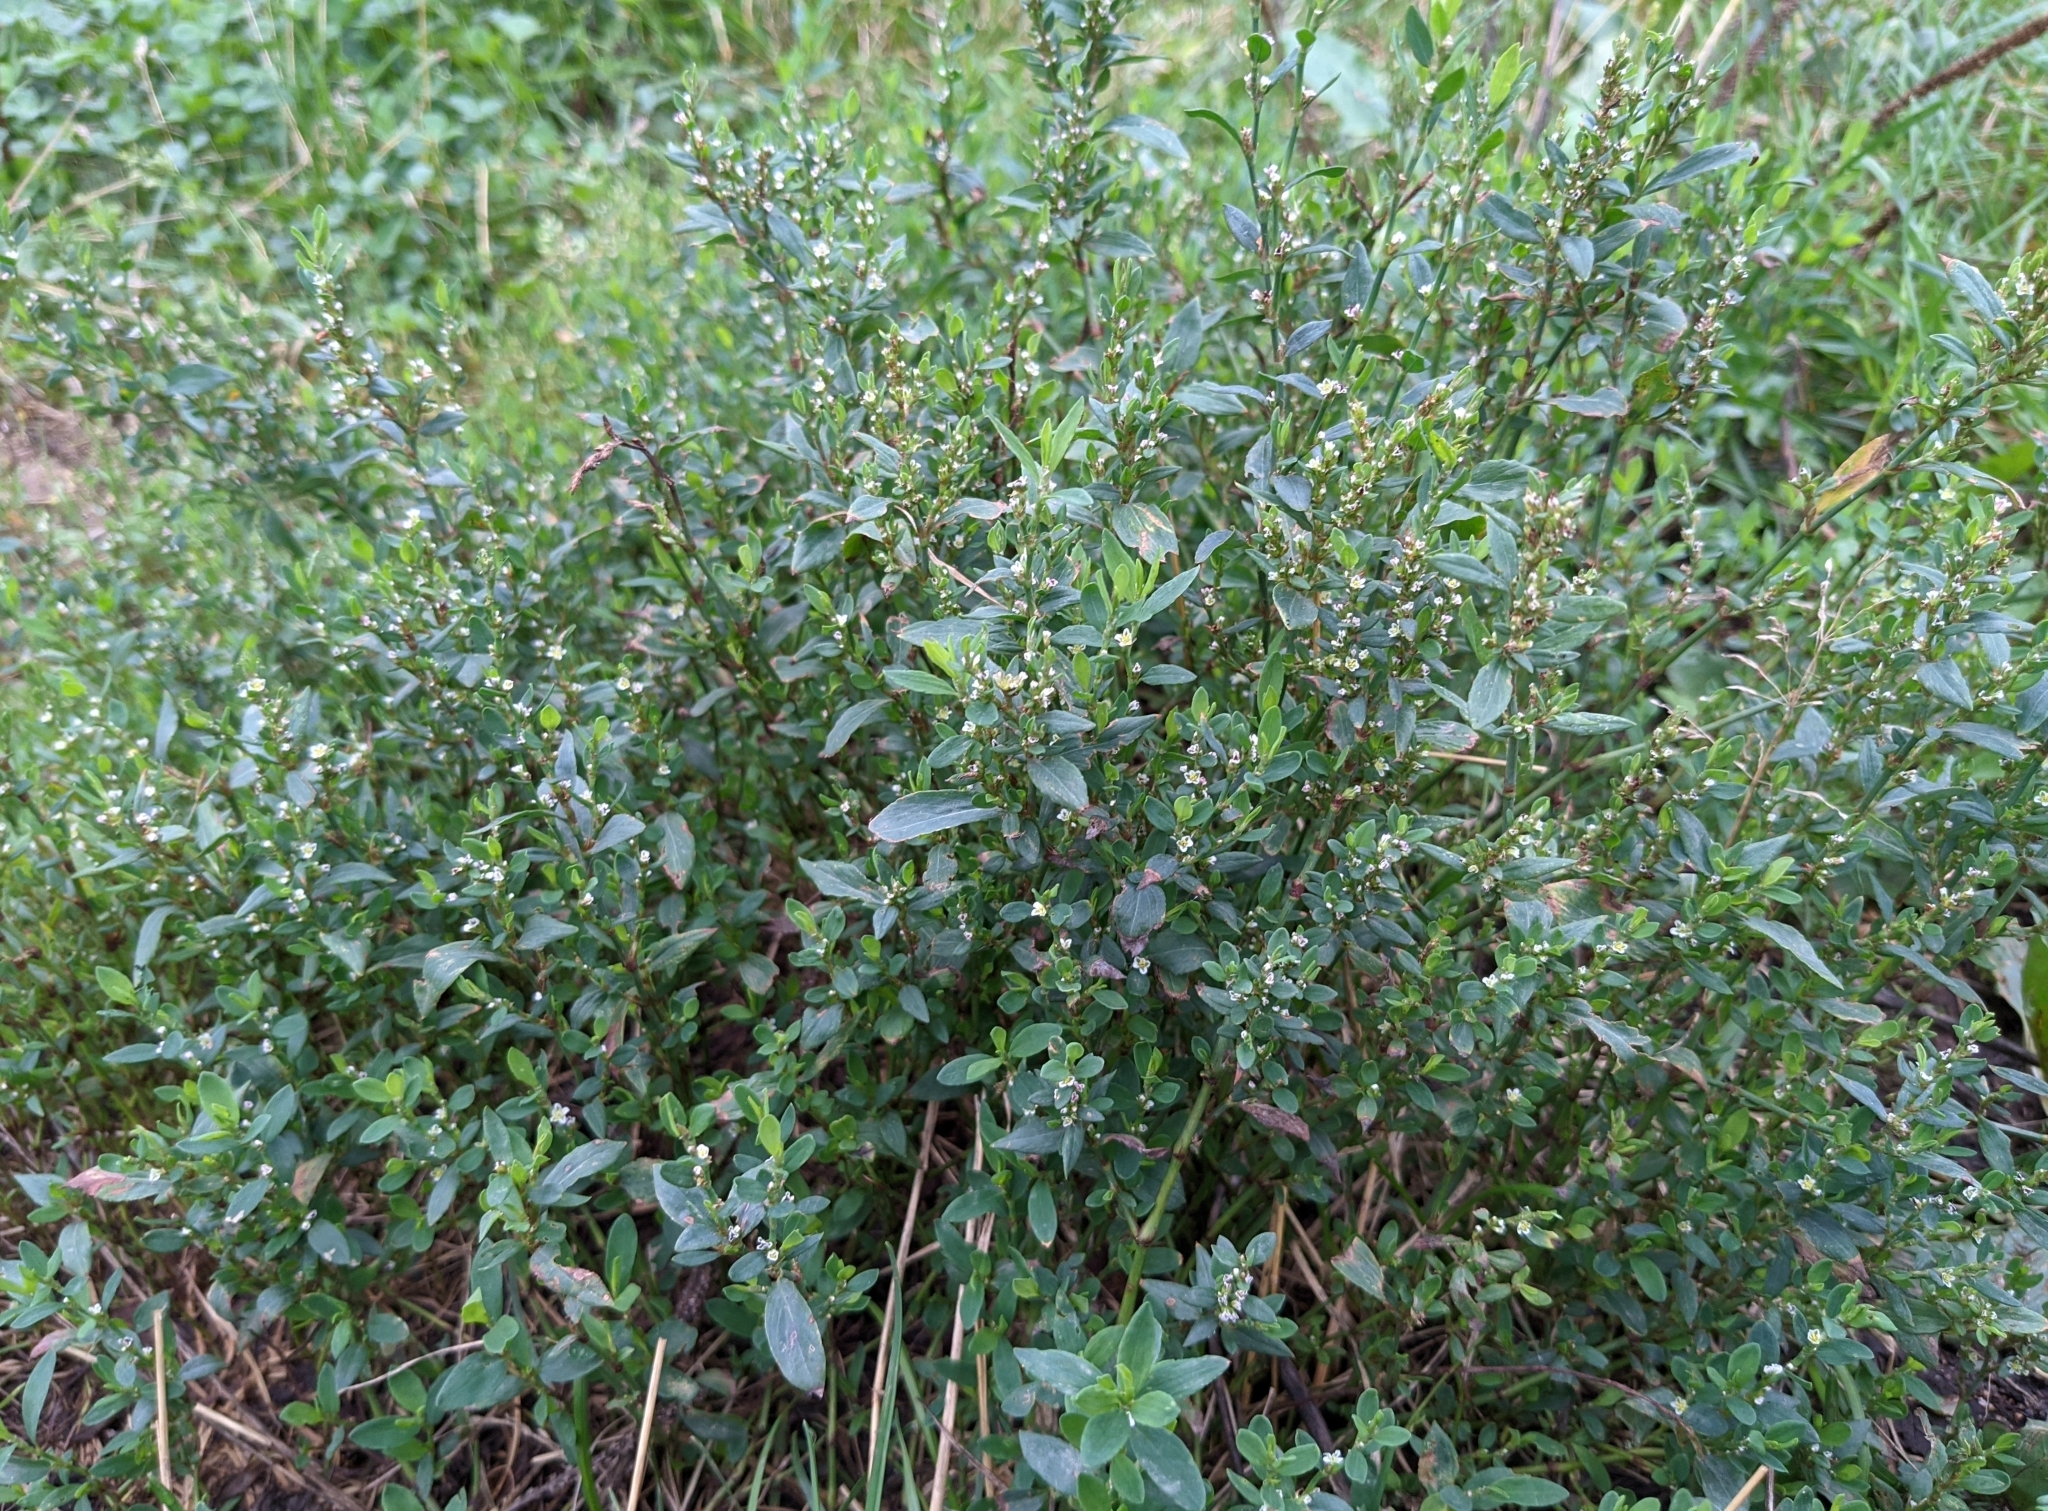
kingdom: Plantae
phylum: Tracheophyta
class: Magnoliopsida
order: Caryophyllales
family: Polygonaceae
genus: Polygonum
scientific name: Polygonum
